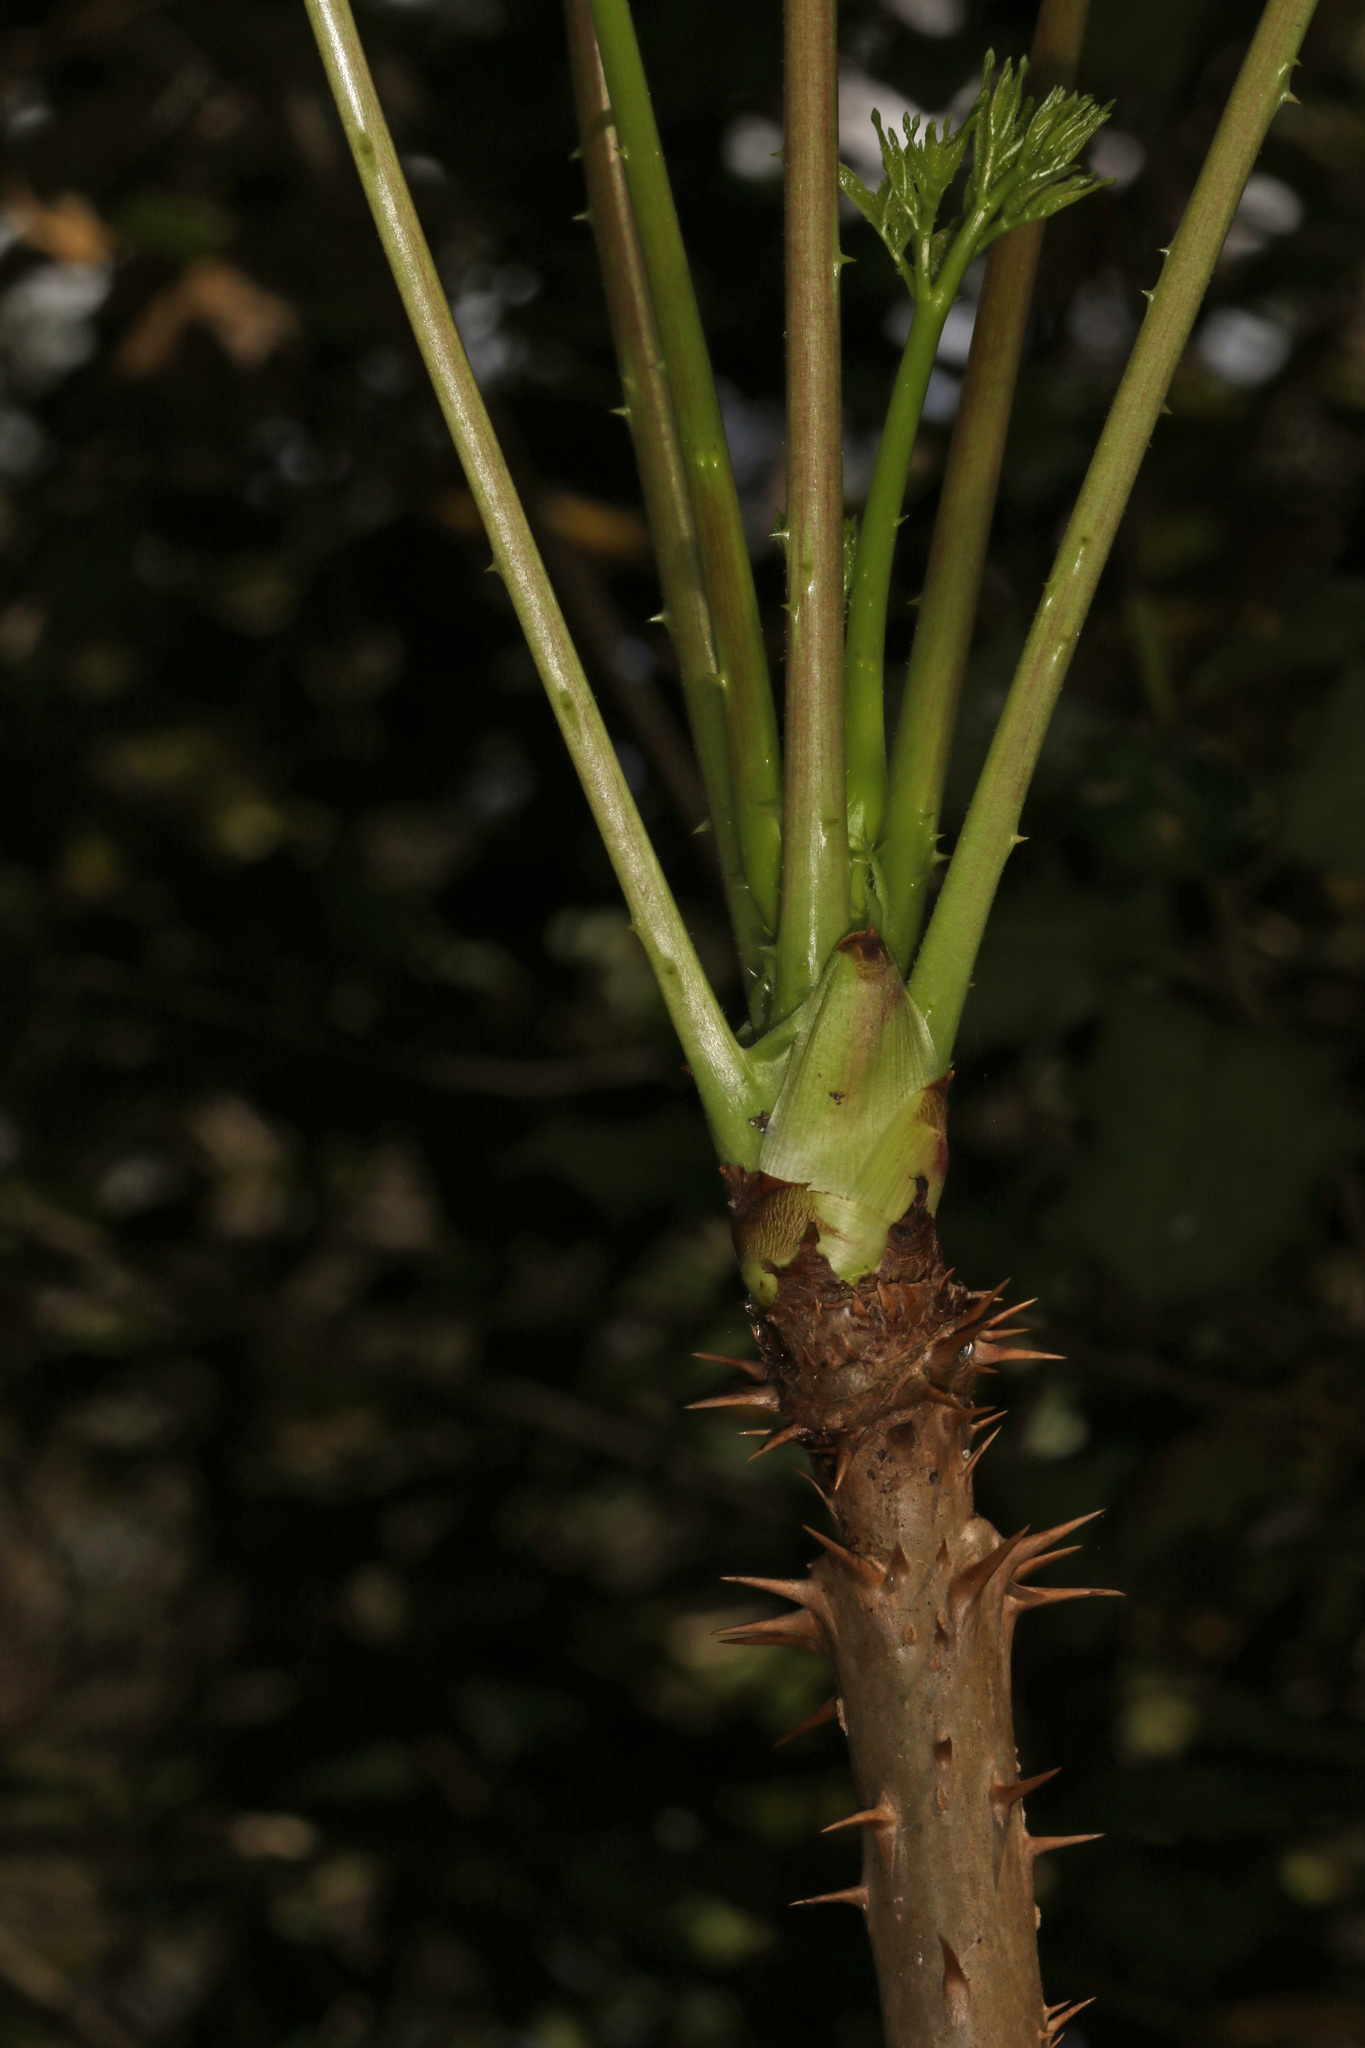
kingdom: Plantae
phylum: Tracheophyta
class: Magnoliopsida
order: Apiales
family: Araliaceae
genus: Aralia
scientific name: Aralia spinosa
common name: Hercules'-club
